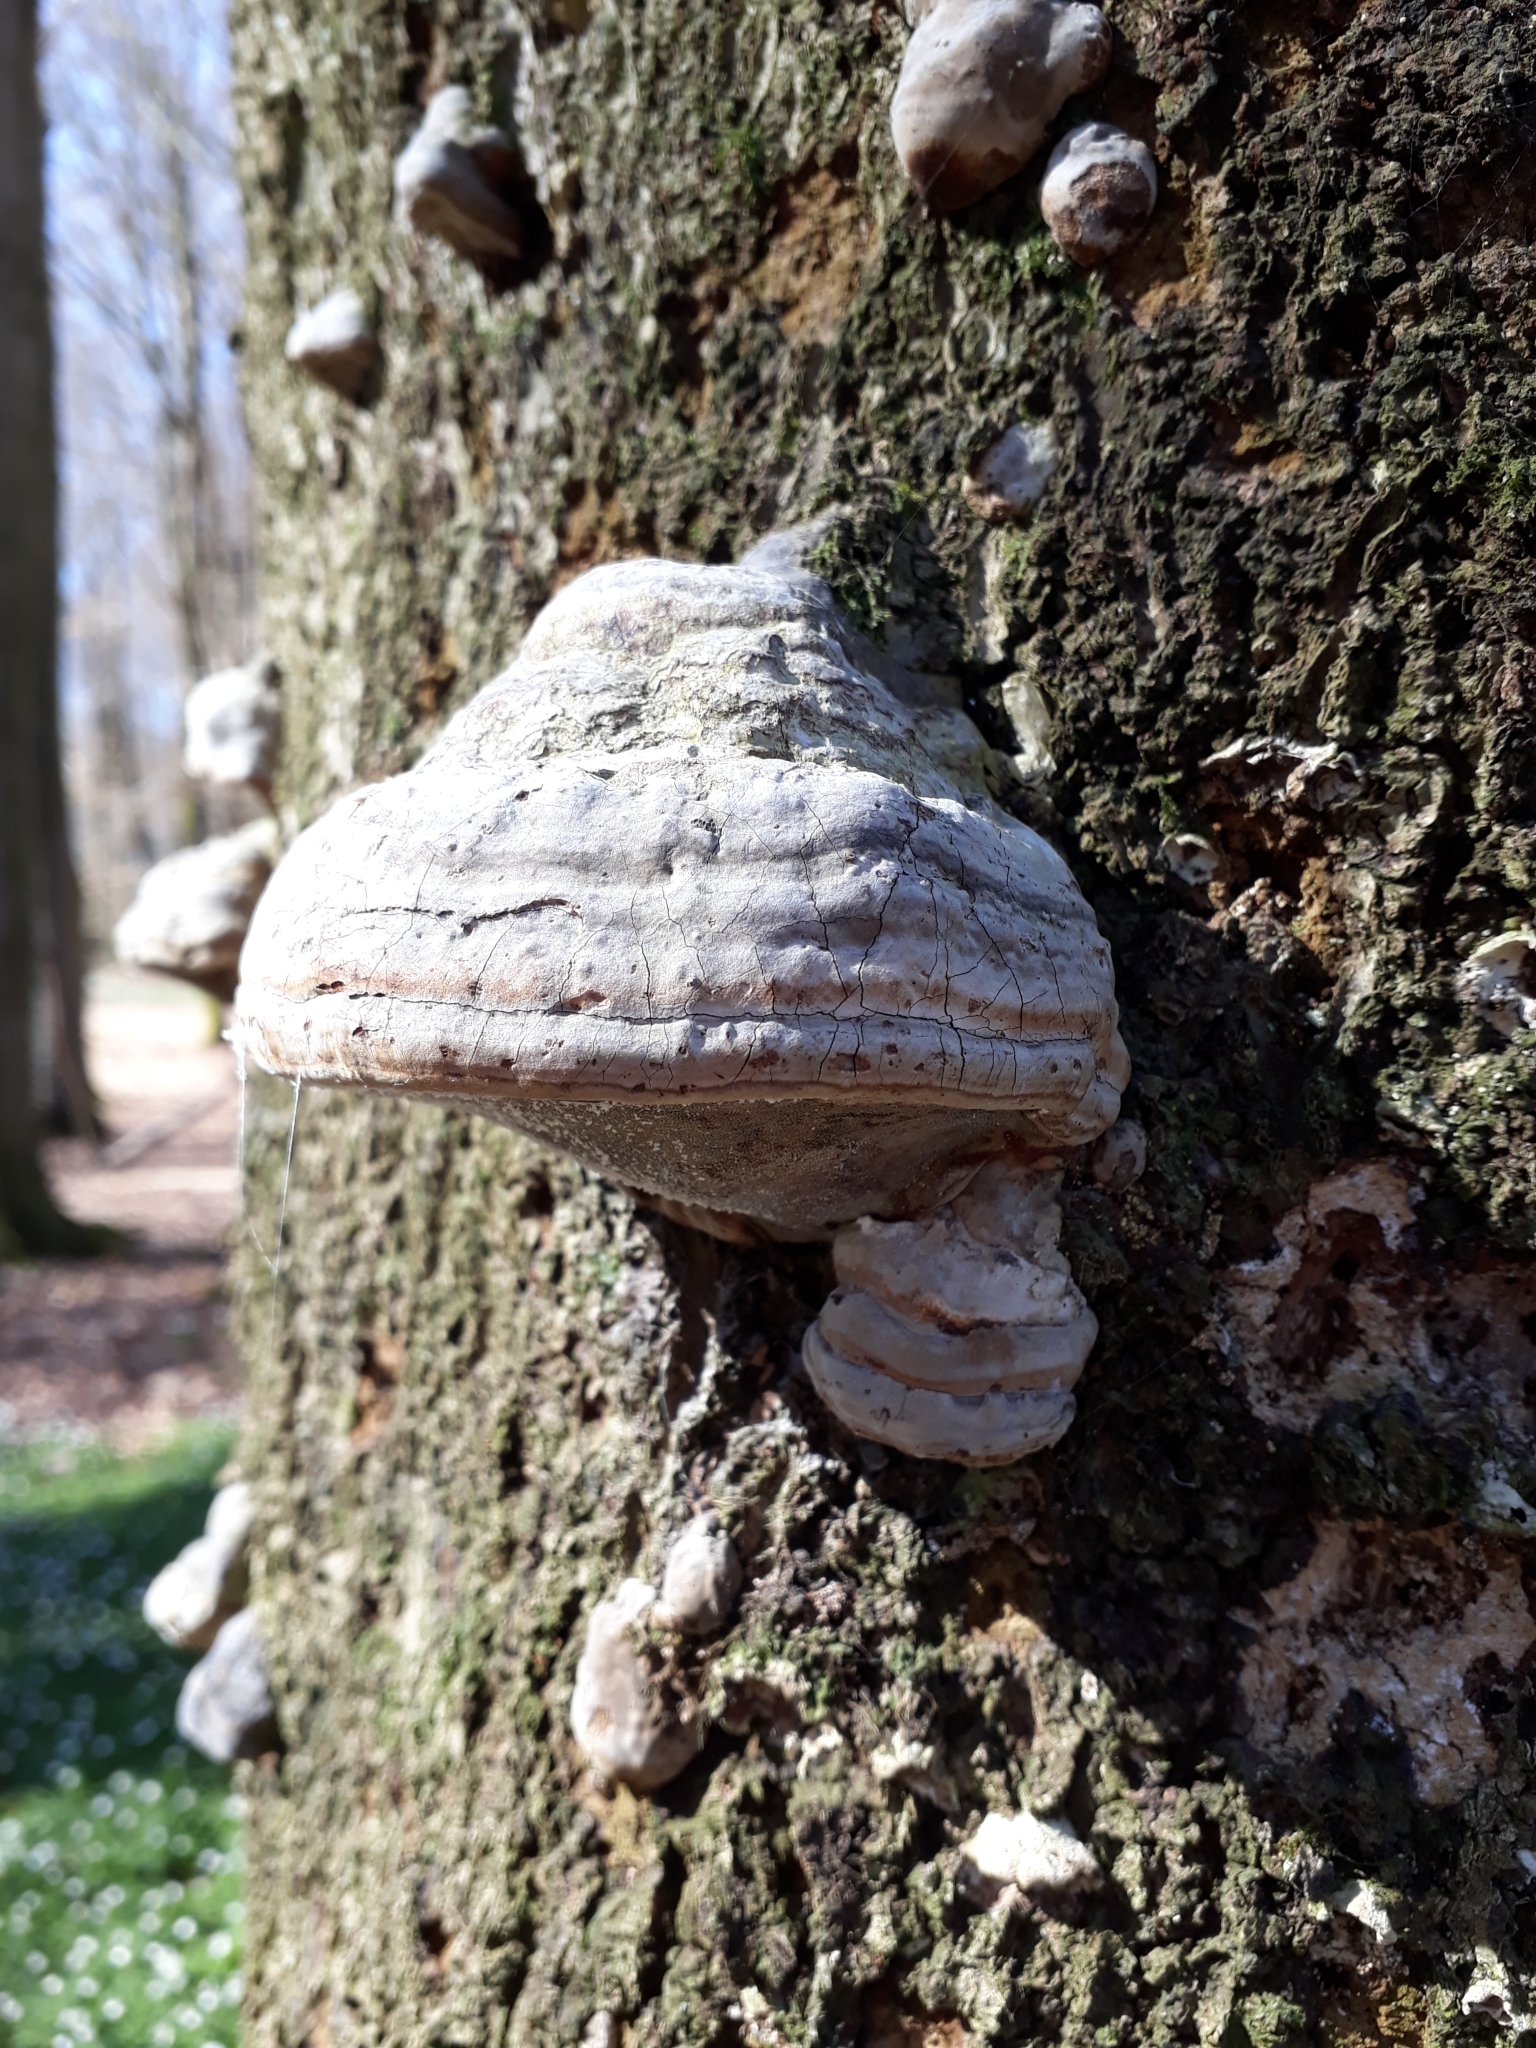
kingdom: Fungi
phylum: Basidiomycota
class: Agaricomycetes
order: Polyporales
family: Polyporaceae
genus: Fomes
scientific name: Fomes fomentarius
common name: Hoof fungus
